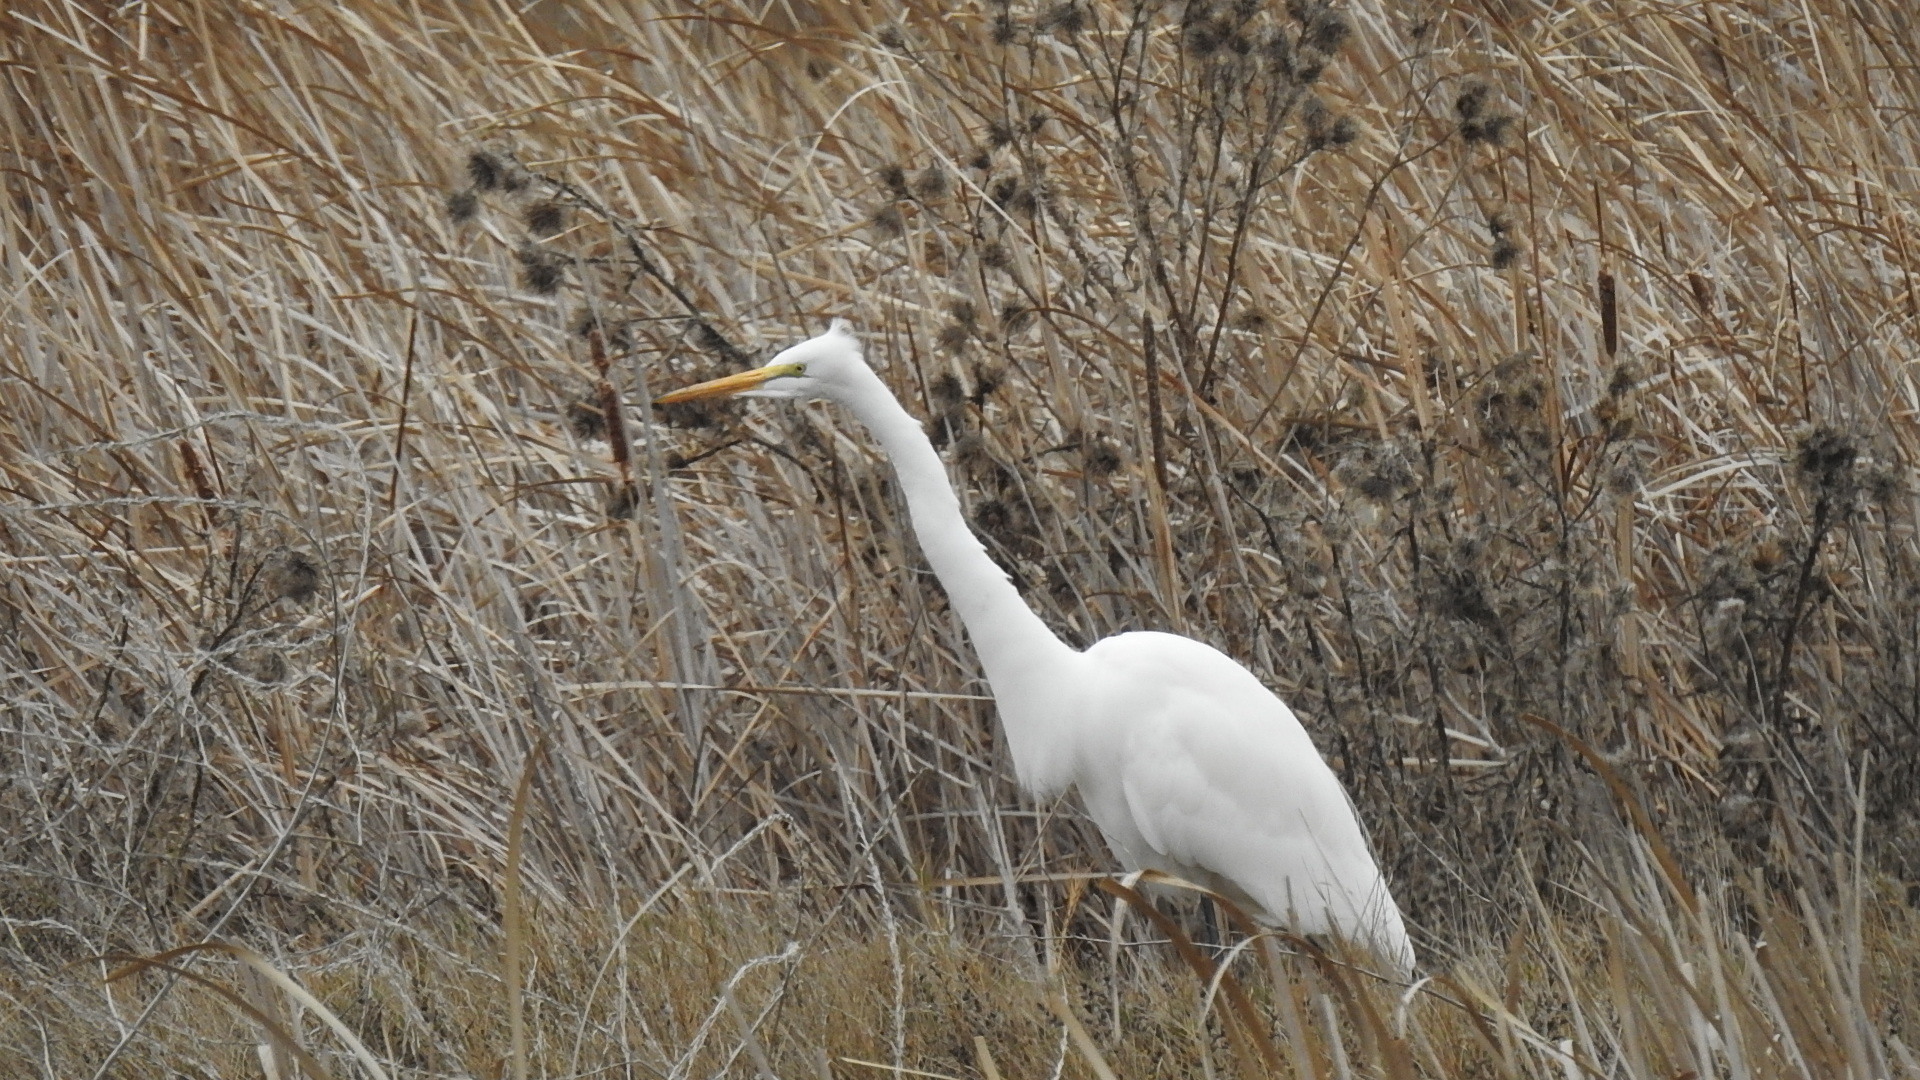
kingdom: Animalia
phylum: Chordata
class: Aves
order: Pelecaniformes
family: Ardeidae
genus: Ardea
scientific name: Ardea alba
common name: Great egret
